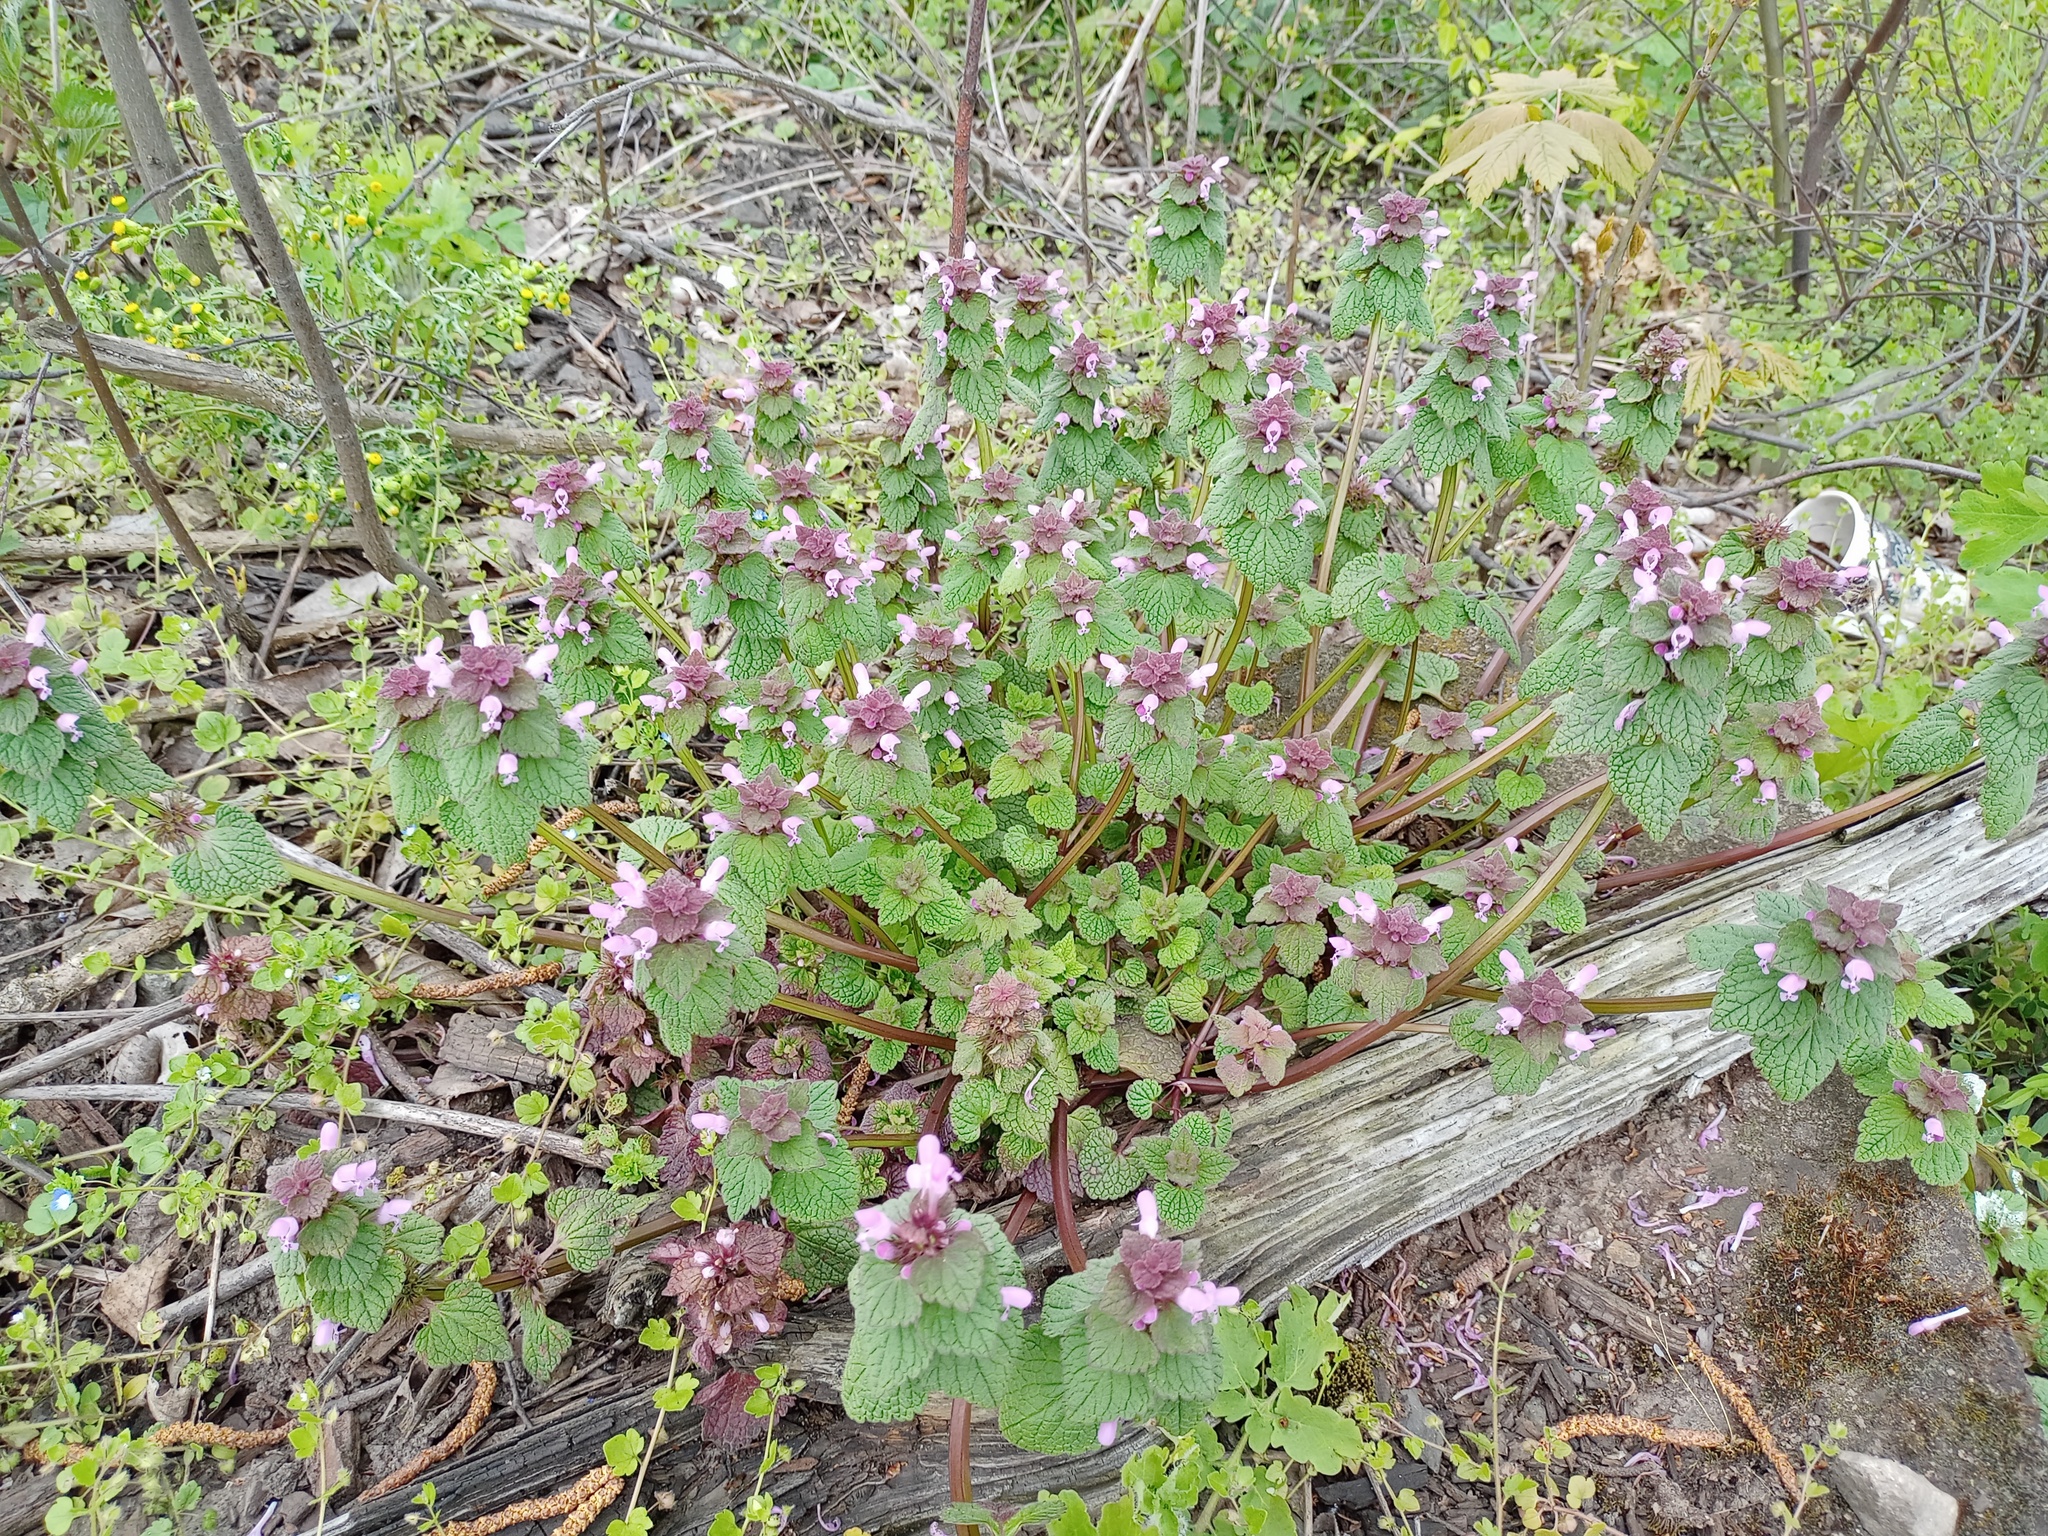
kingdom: Plantae
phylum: Tracheophyta
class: Magnoliopsida
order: Lamiales
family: Lamiaceae
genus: Lamium
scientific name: Lamium purpureum
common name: Red dead-nettle
